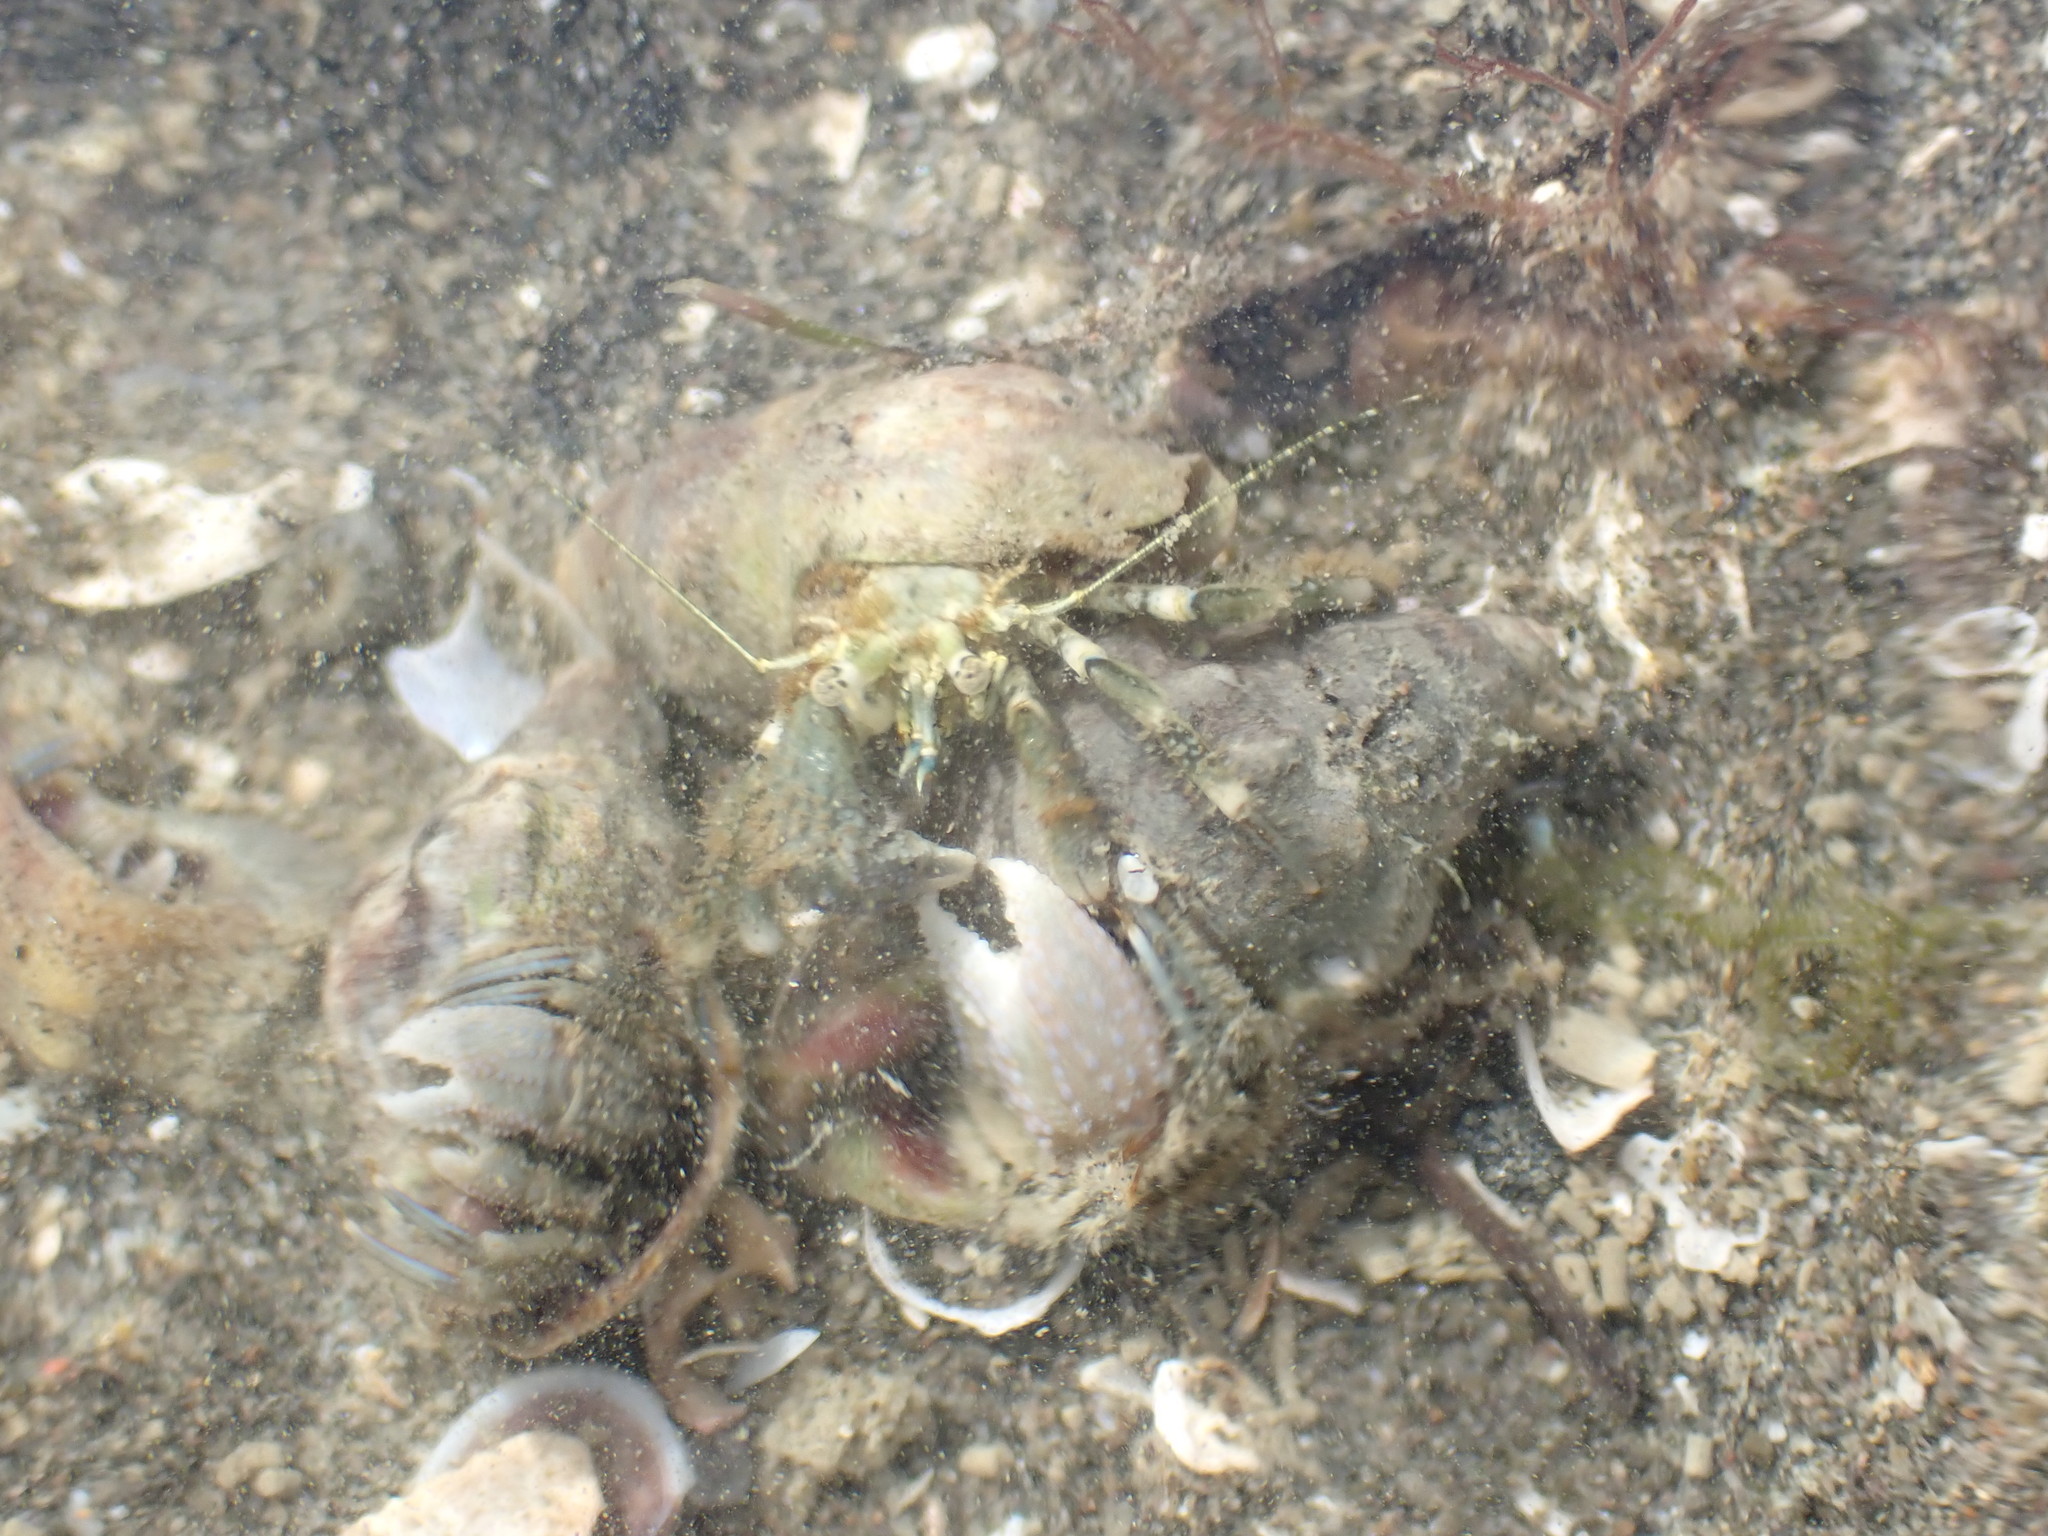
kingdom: Animalia
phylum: Arthropoda
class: Malacostraca
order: Decapoda
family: Paguridae
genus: Pagurus
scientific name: Pagurus novizealandiae
